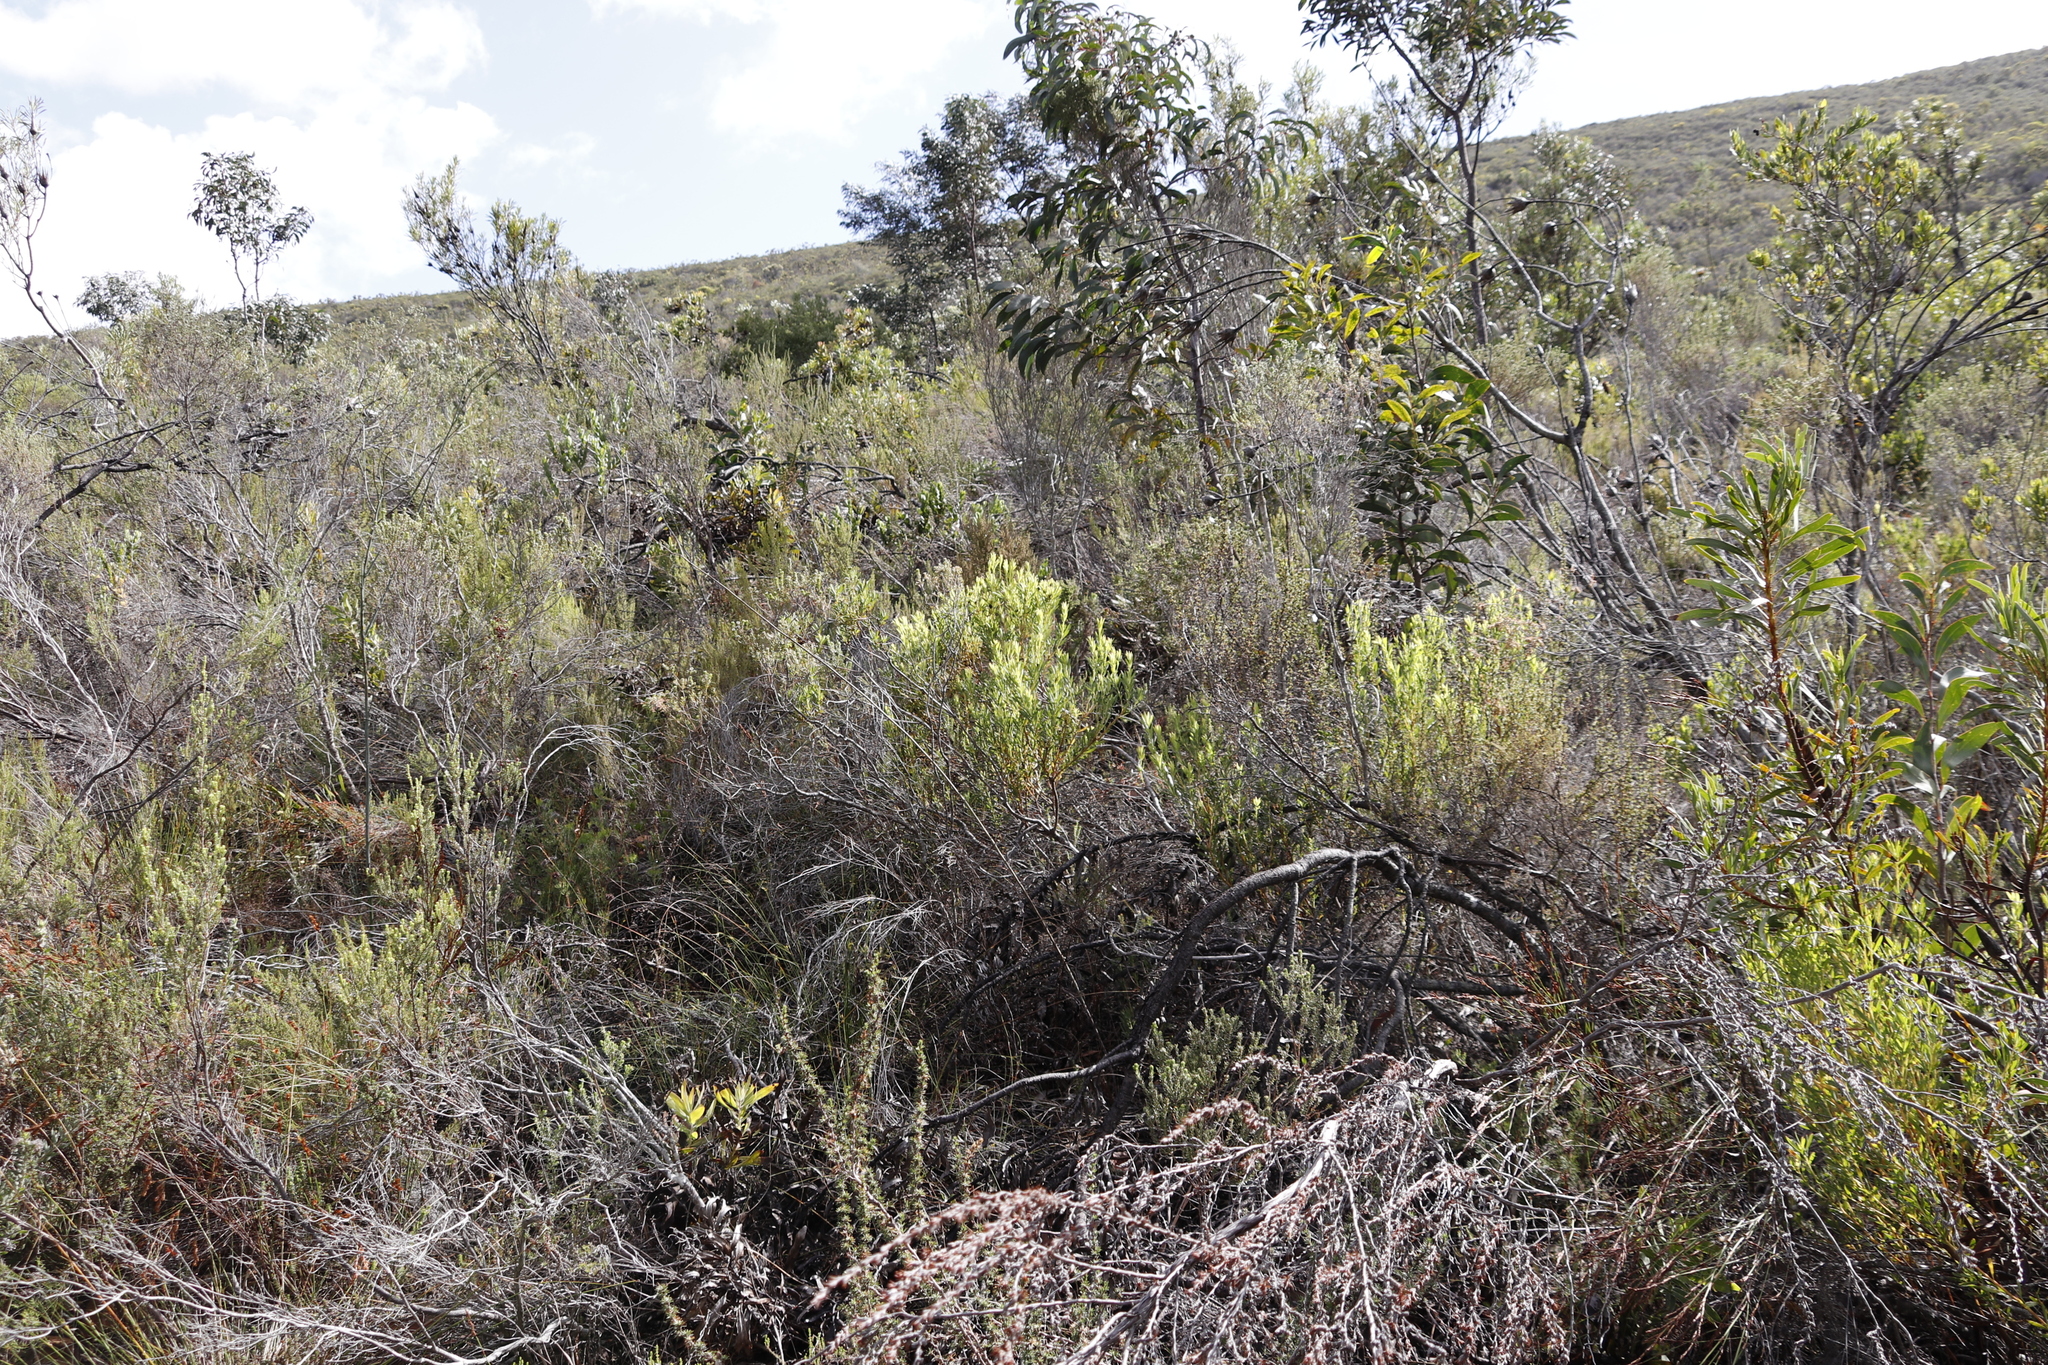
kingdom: Plantae
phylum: Tracheophyta
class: Magnoliopsida
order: Proteales
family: Proteaceae
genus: Leucadendron
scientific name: Leucadendron salignum
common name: Common sunshine conebush
